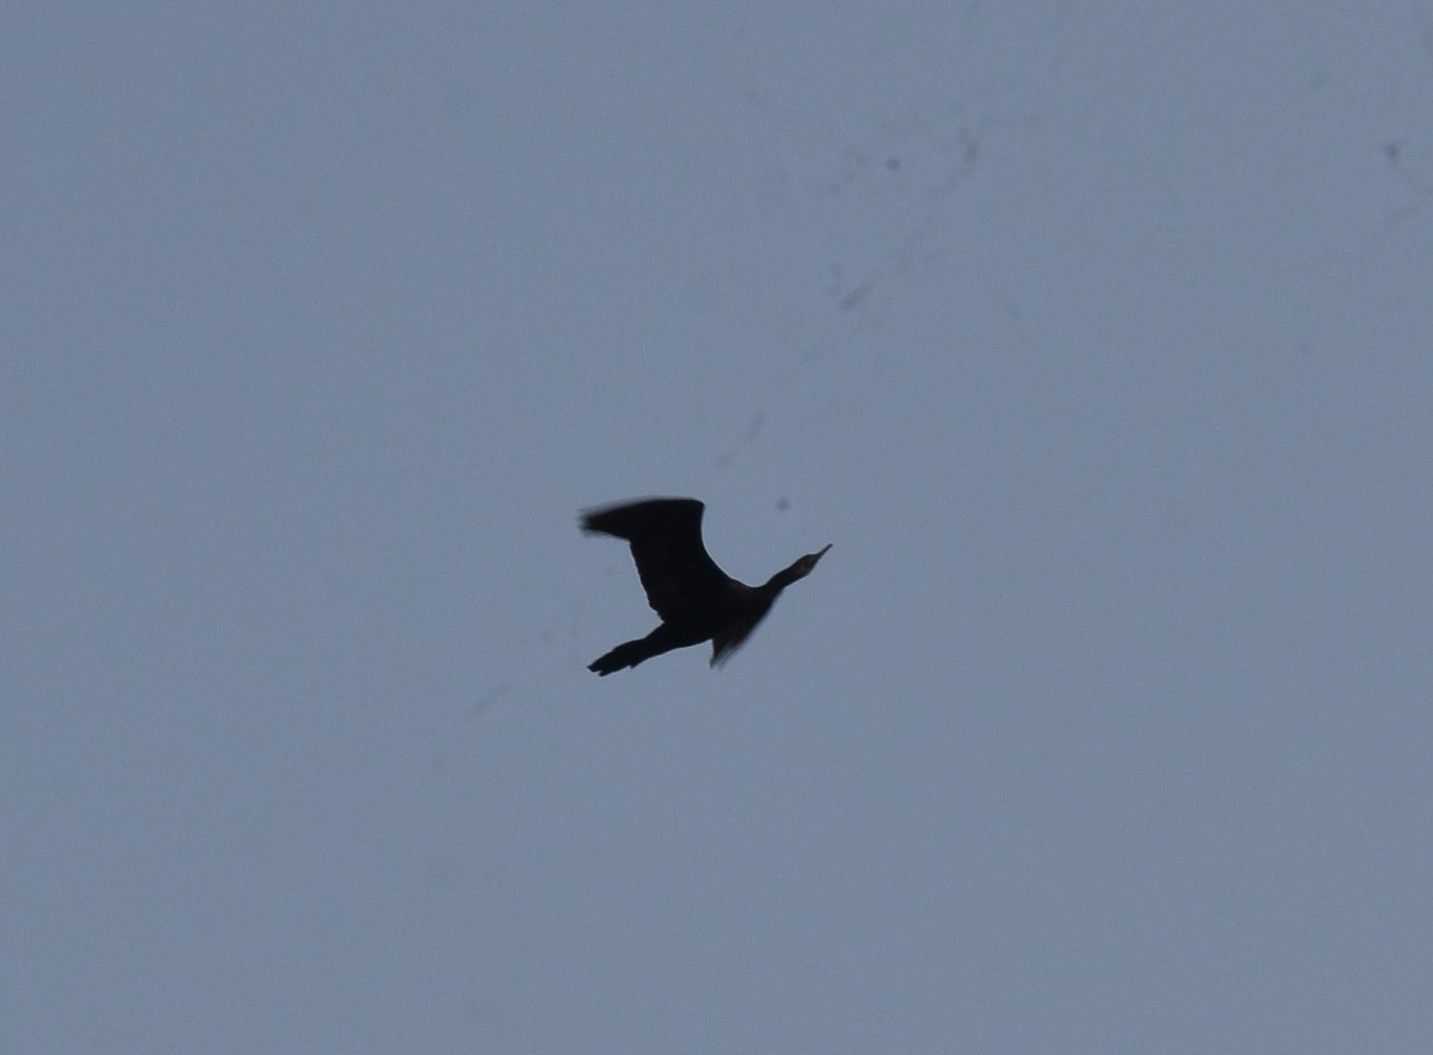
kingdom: Animalia
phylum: Chordata
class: Aves
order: Suliformes
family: Phalacrocoracidae
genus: Phalacrocorax
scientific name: Phalacrocorax fuscicollis
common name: Indian cormorant
